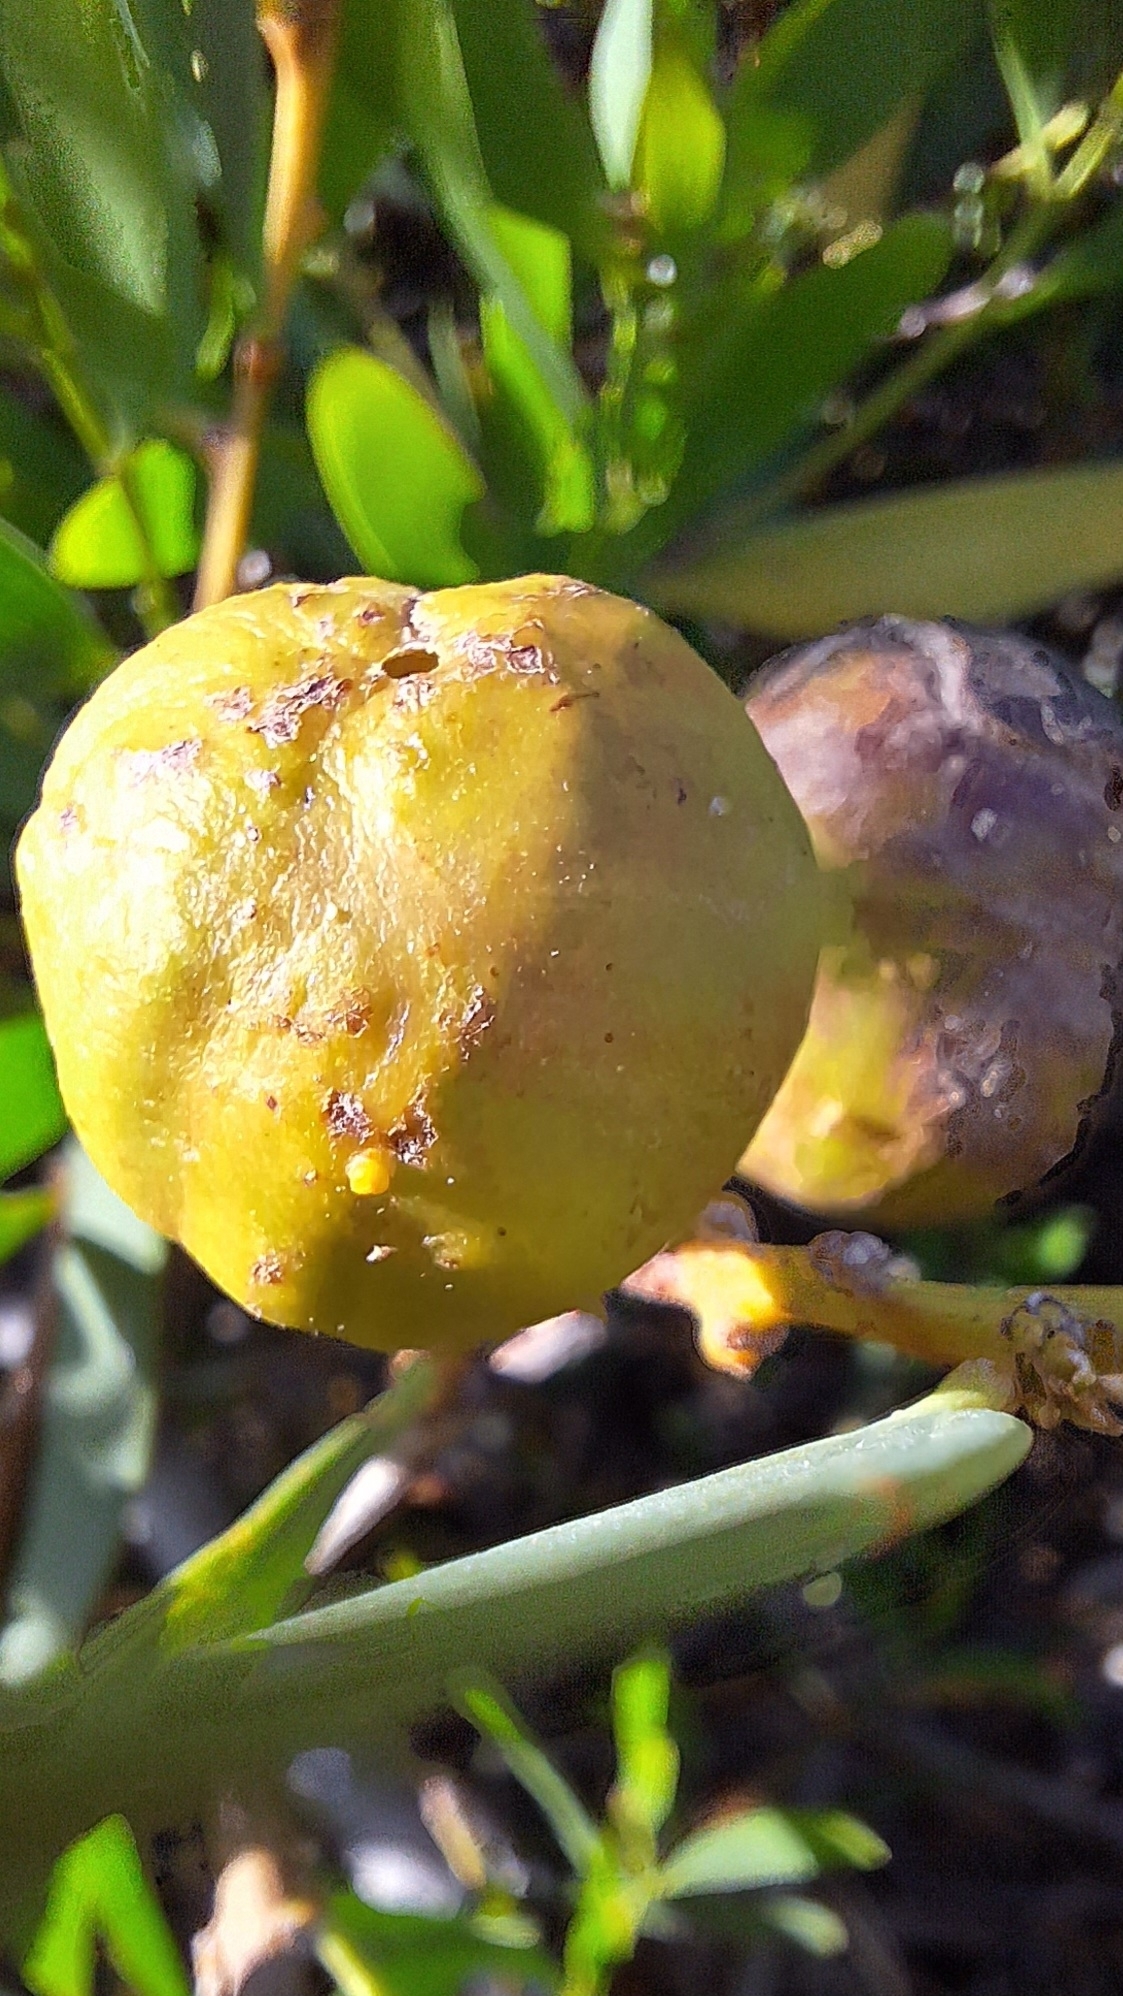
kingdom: Animalia
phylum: Arthropoda
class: Insecta
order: Hymenoptera
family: Pteromalidae
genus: Trichilogaster
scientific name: Trichilogaster acaciaelongifoliae
